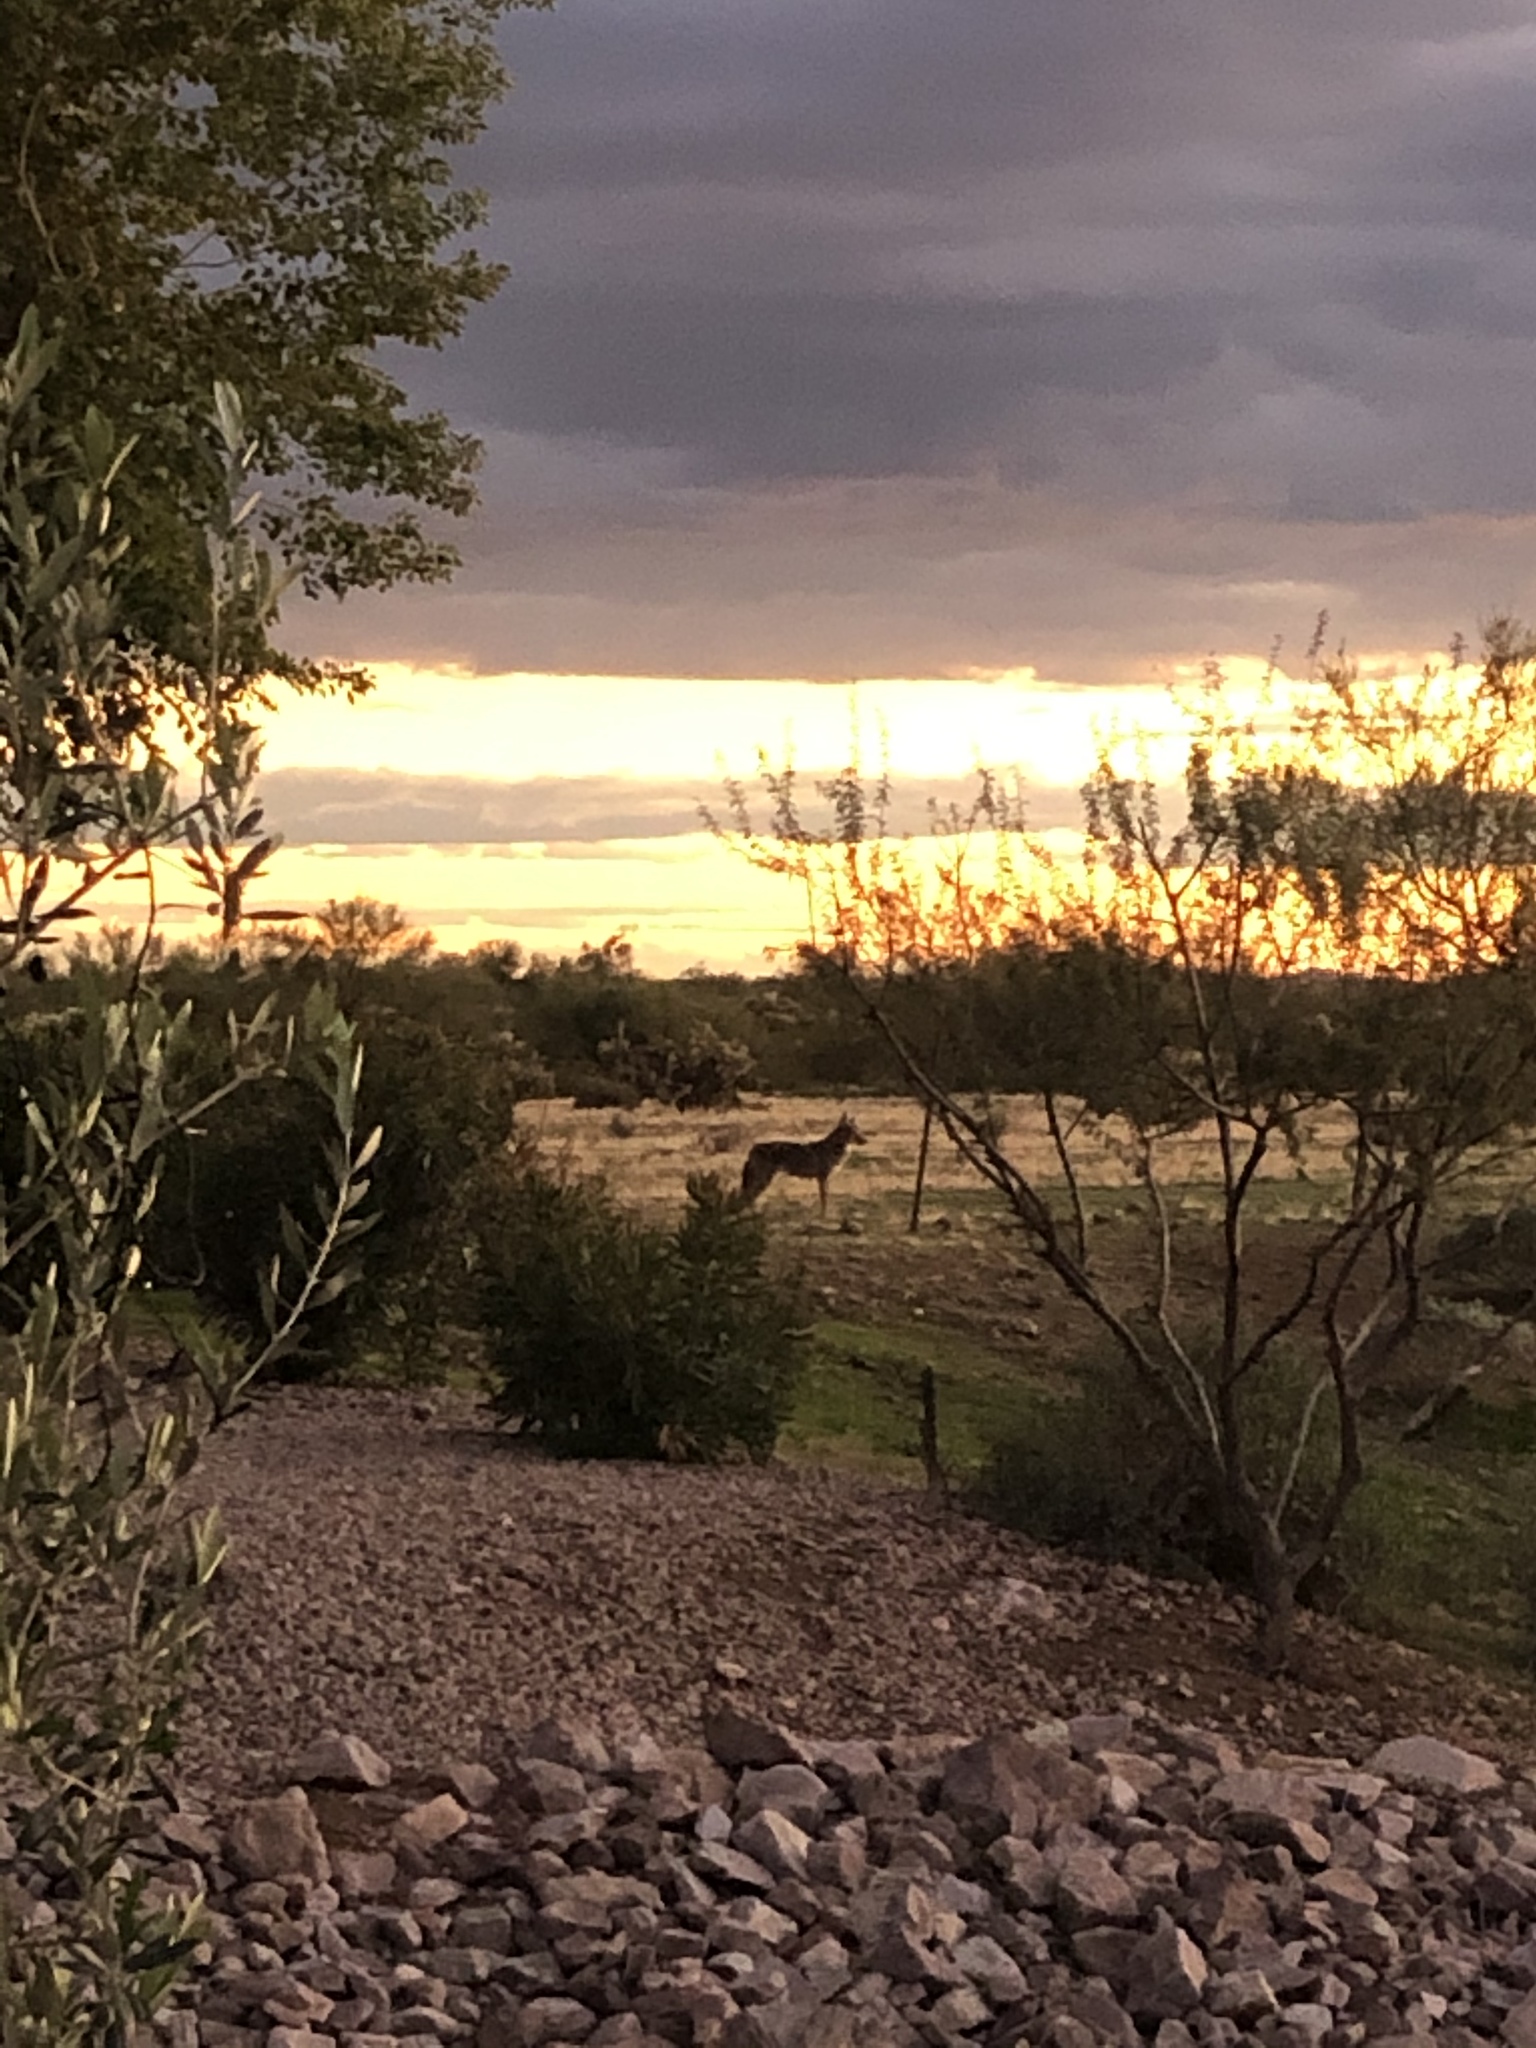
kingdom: Animalia
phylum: Chordata
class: Mammalia
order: Carnivora
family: Canidae
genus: Canis
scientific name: Canis latrans
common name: Coyote
